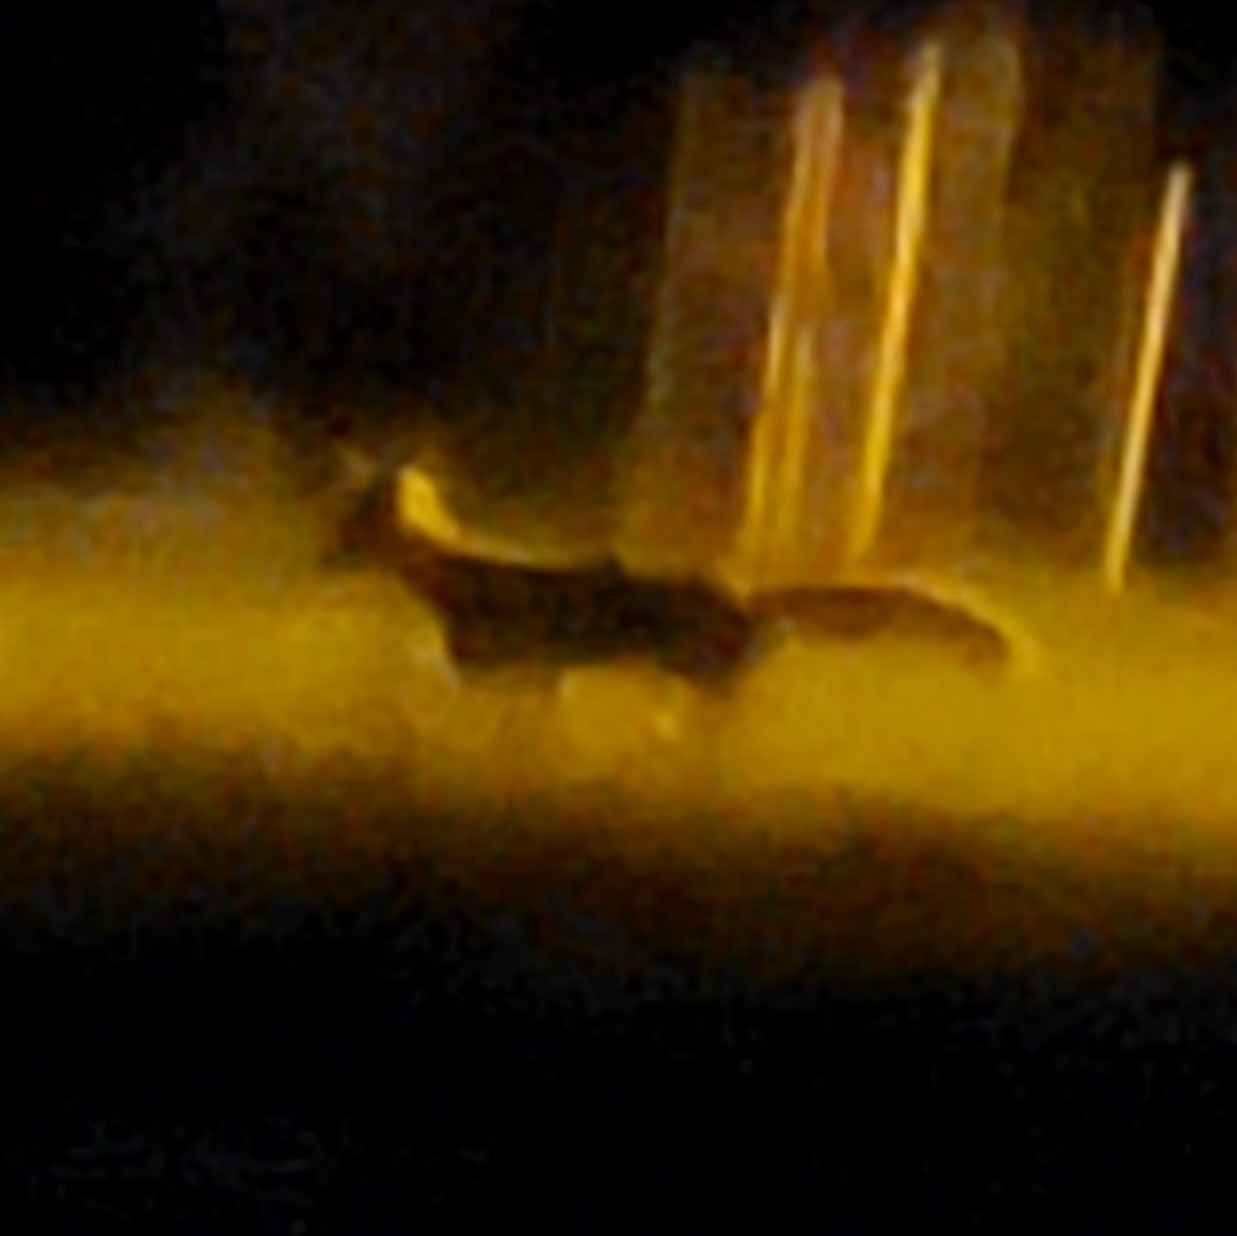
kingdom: Animalia
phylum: Chordata
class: Mammalia
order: Carnivora
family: Canidae
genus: Vulpes
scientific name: Vulpes vulpes
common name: Red fox
